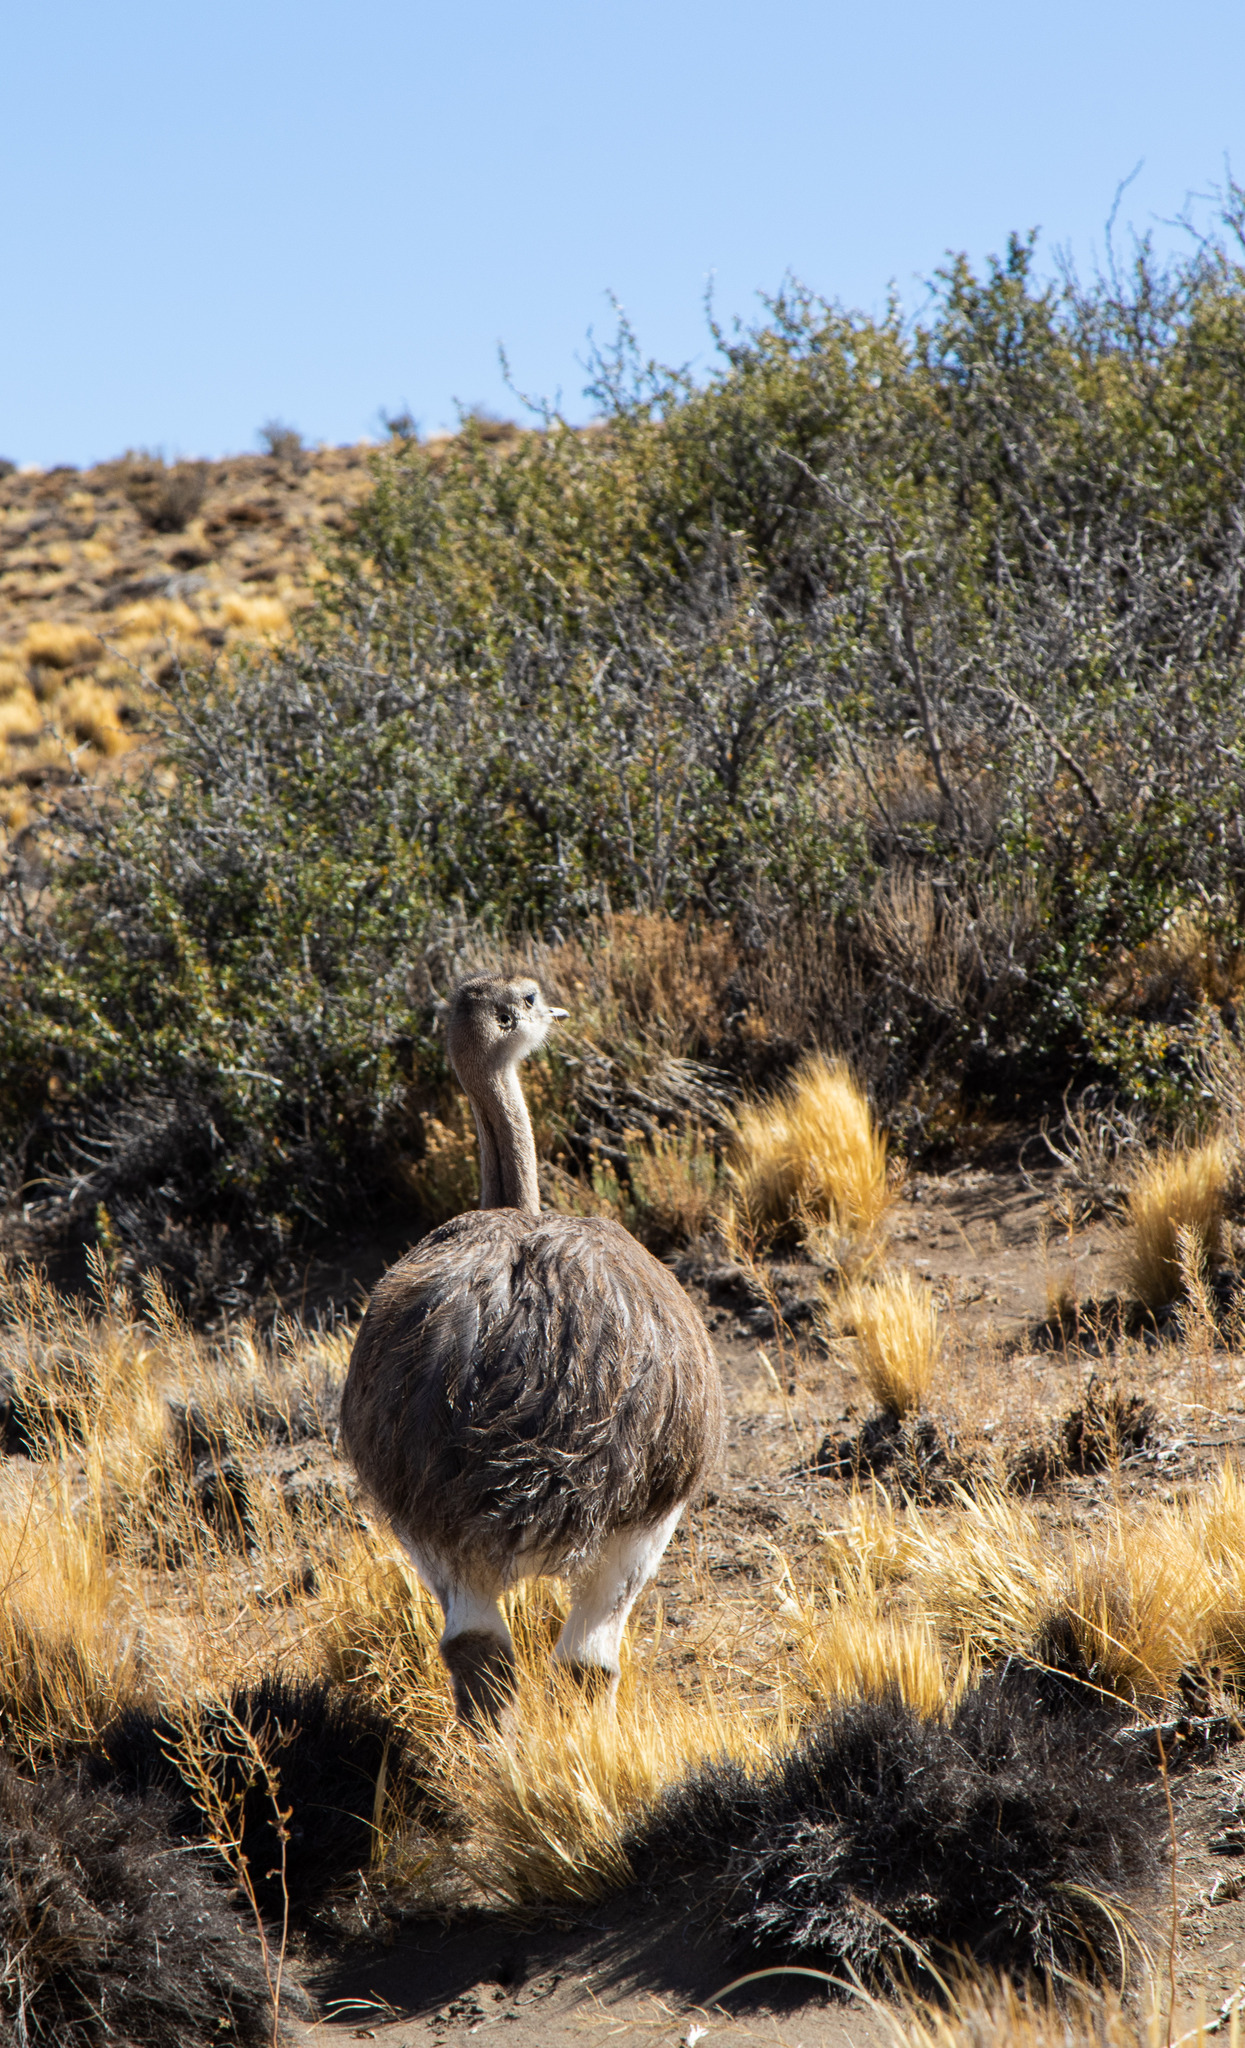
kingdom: Animalia
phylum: Chordata
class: Aves
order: Rheiformes
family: Rheidae
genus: Rhea
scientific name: Rhea pennata
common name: Lesser rhea
